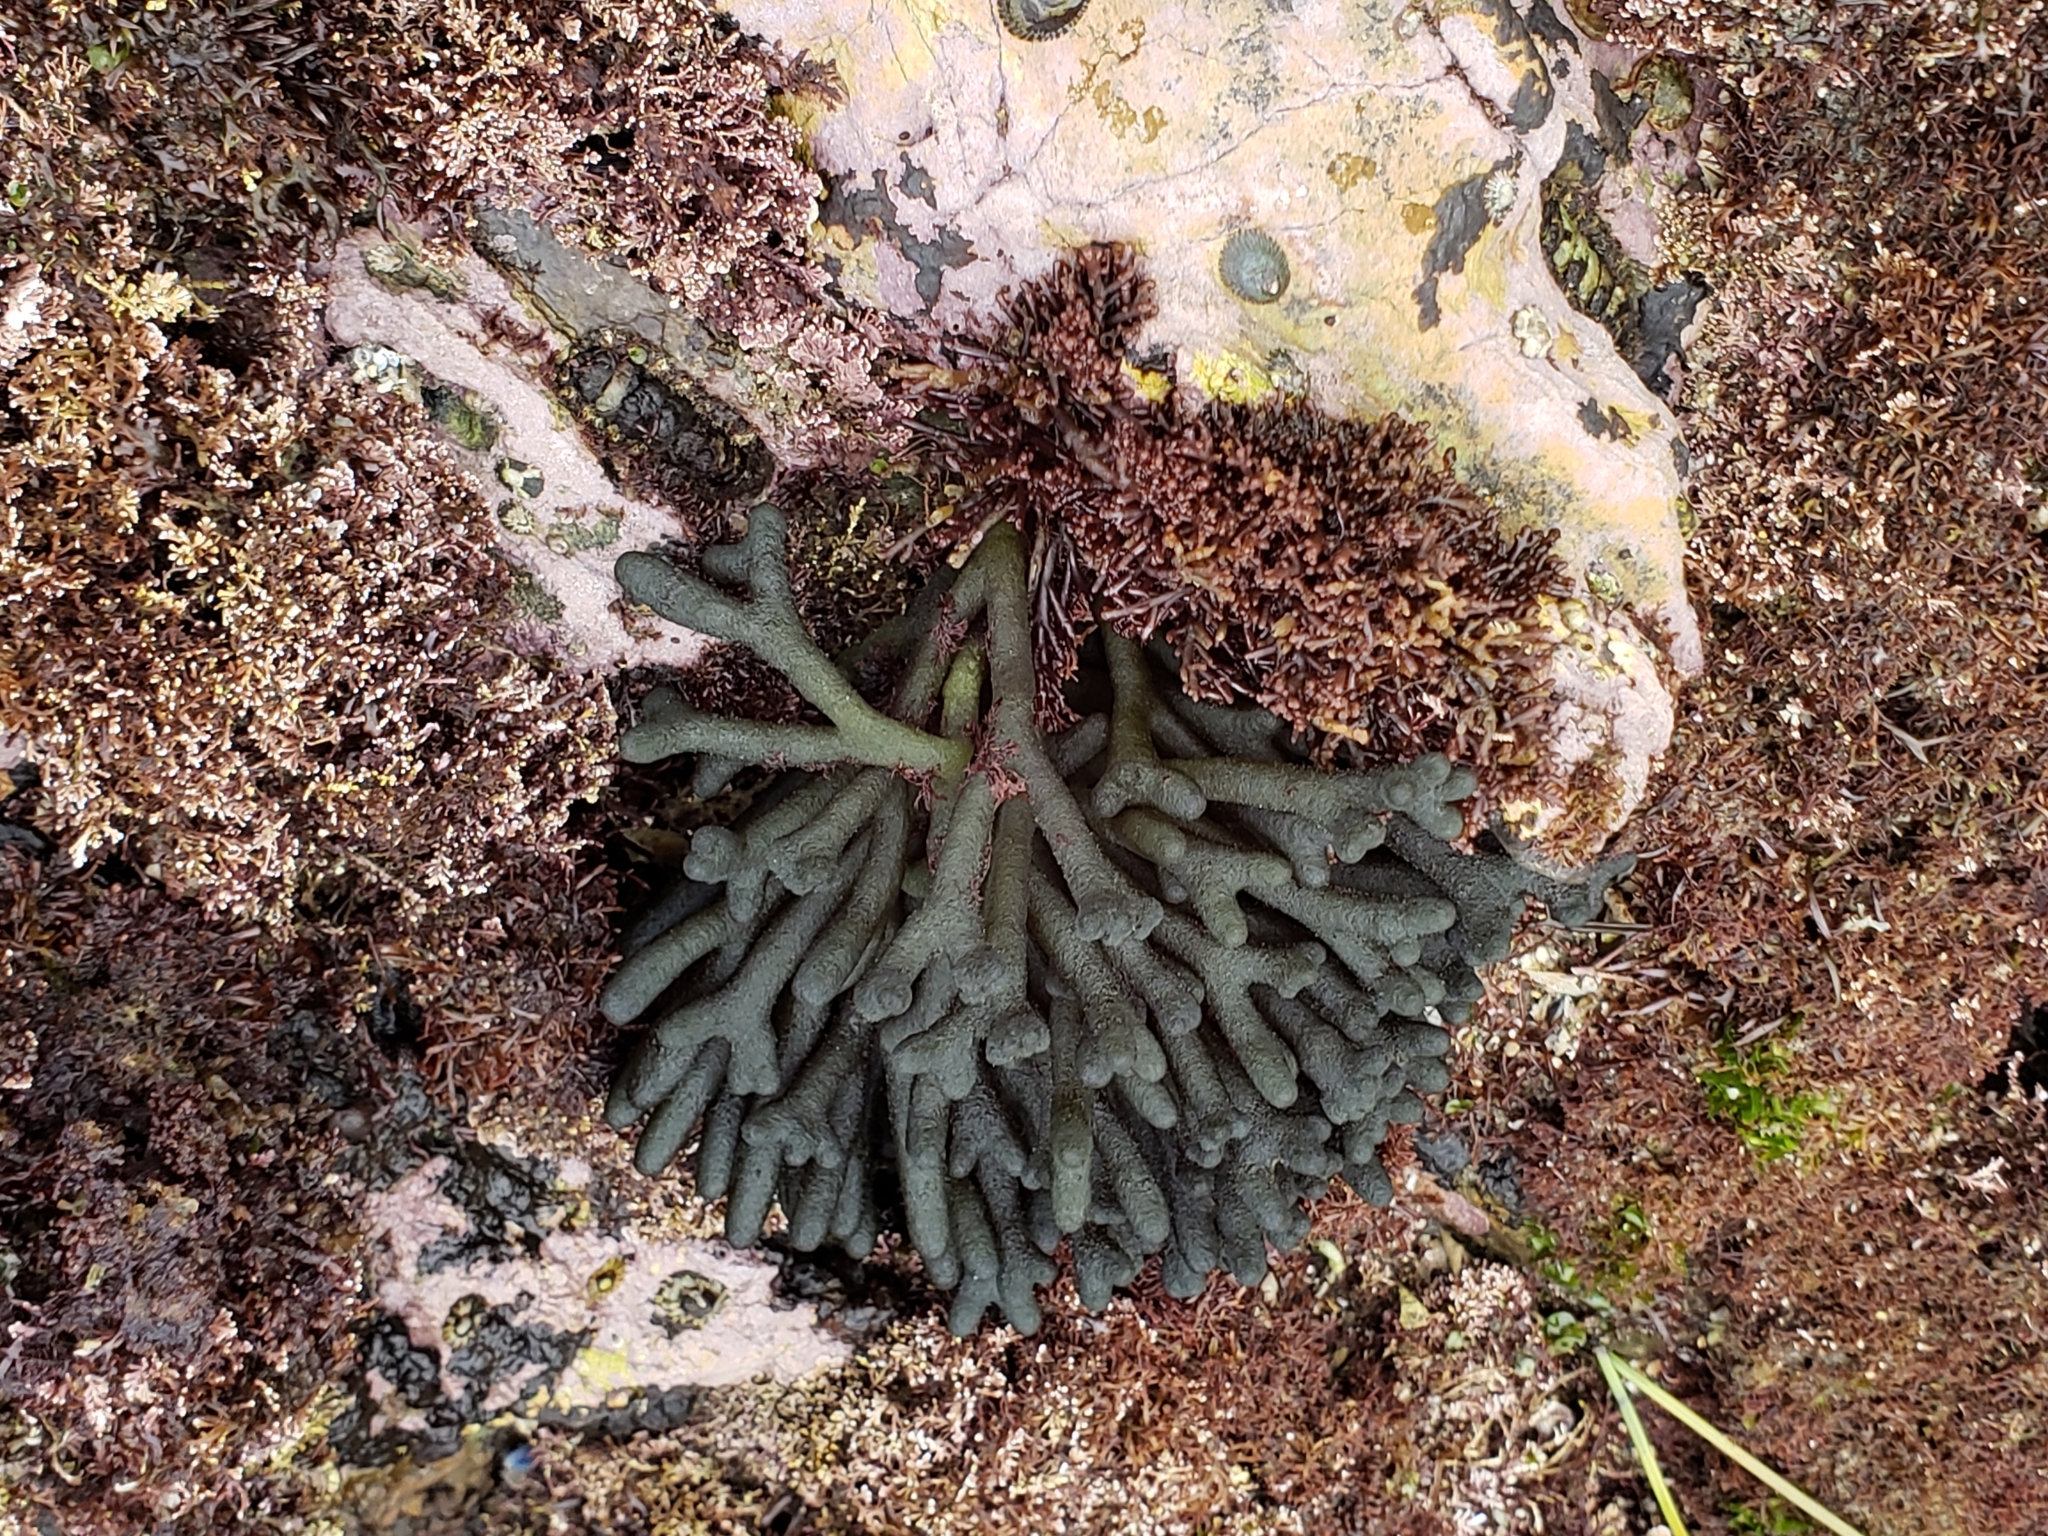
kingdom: Plantae
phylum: Chlorophyta
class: Ulvophyceae
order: Bryopsidales
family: Codiaceae
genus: Codium
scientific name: Codium fragile
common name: Dead man's fingers
